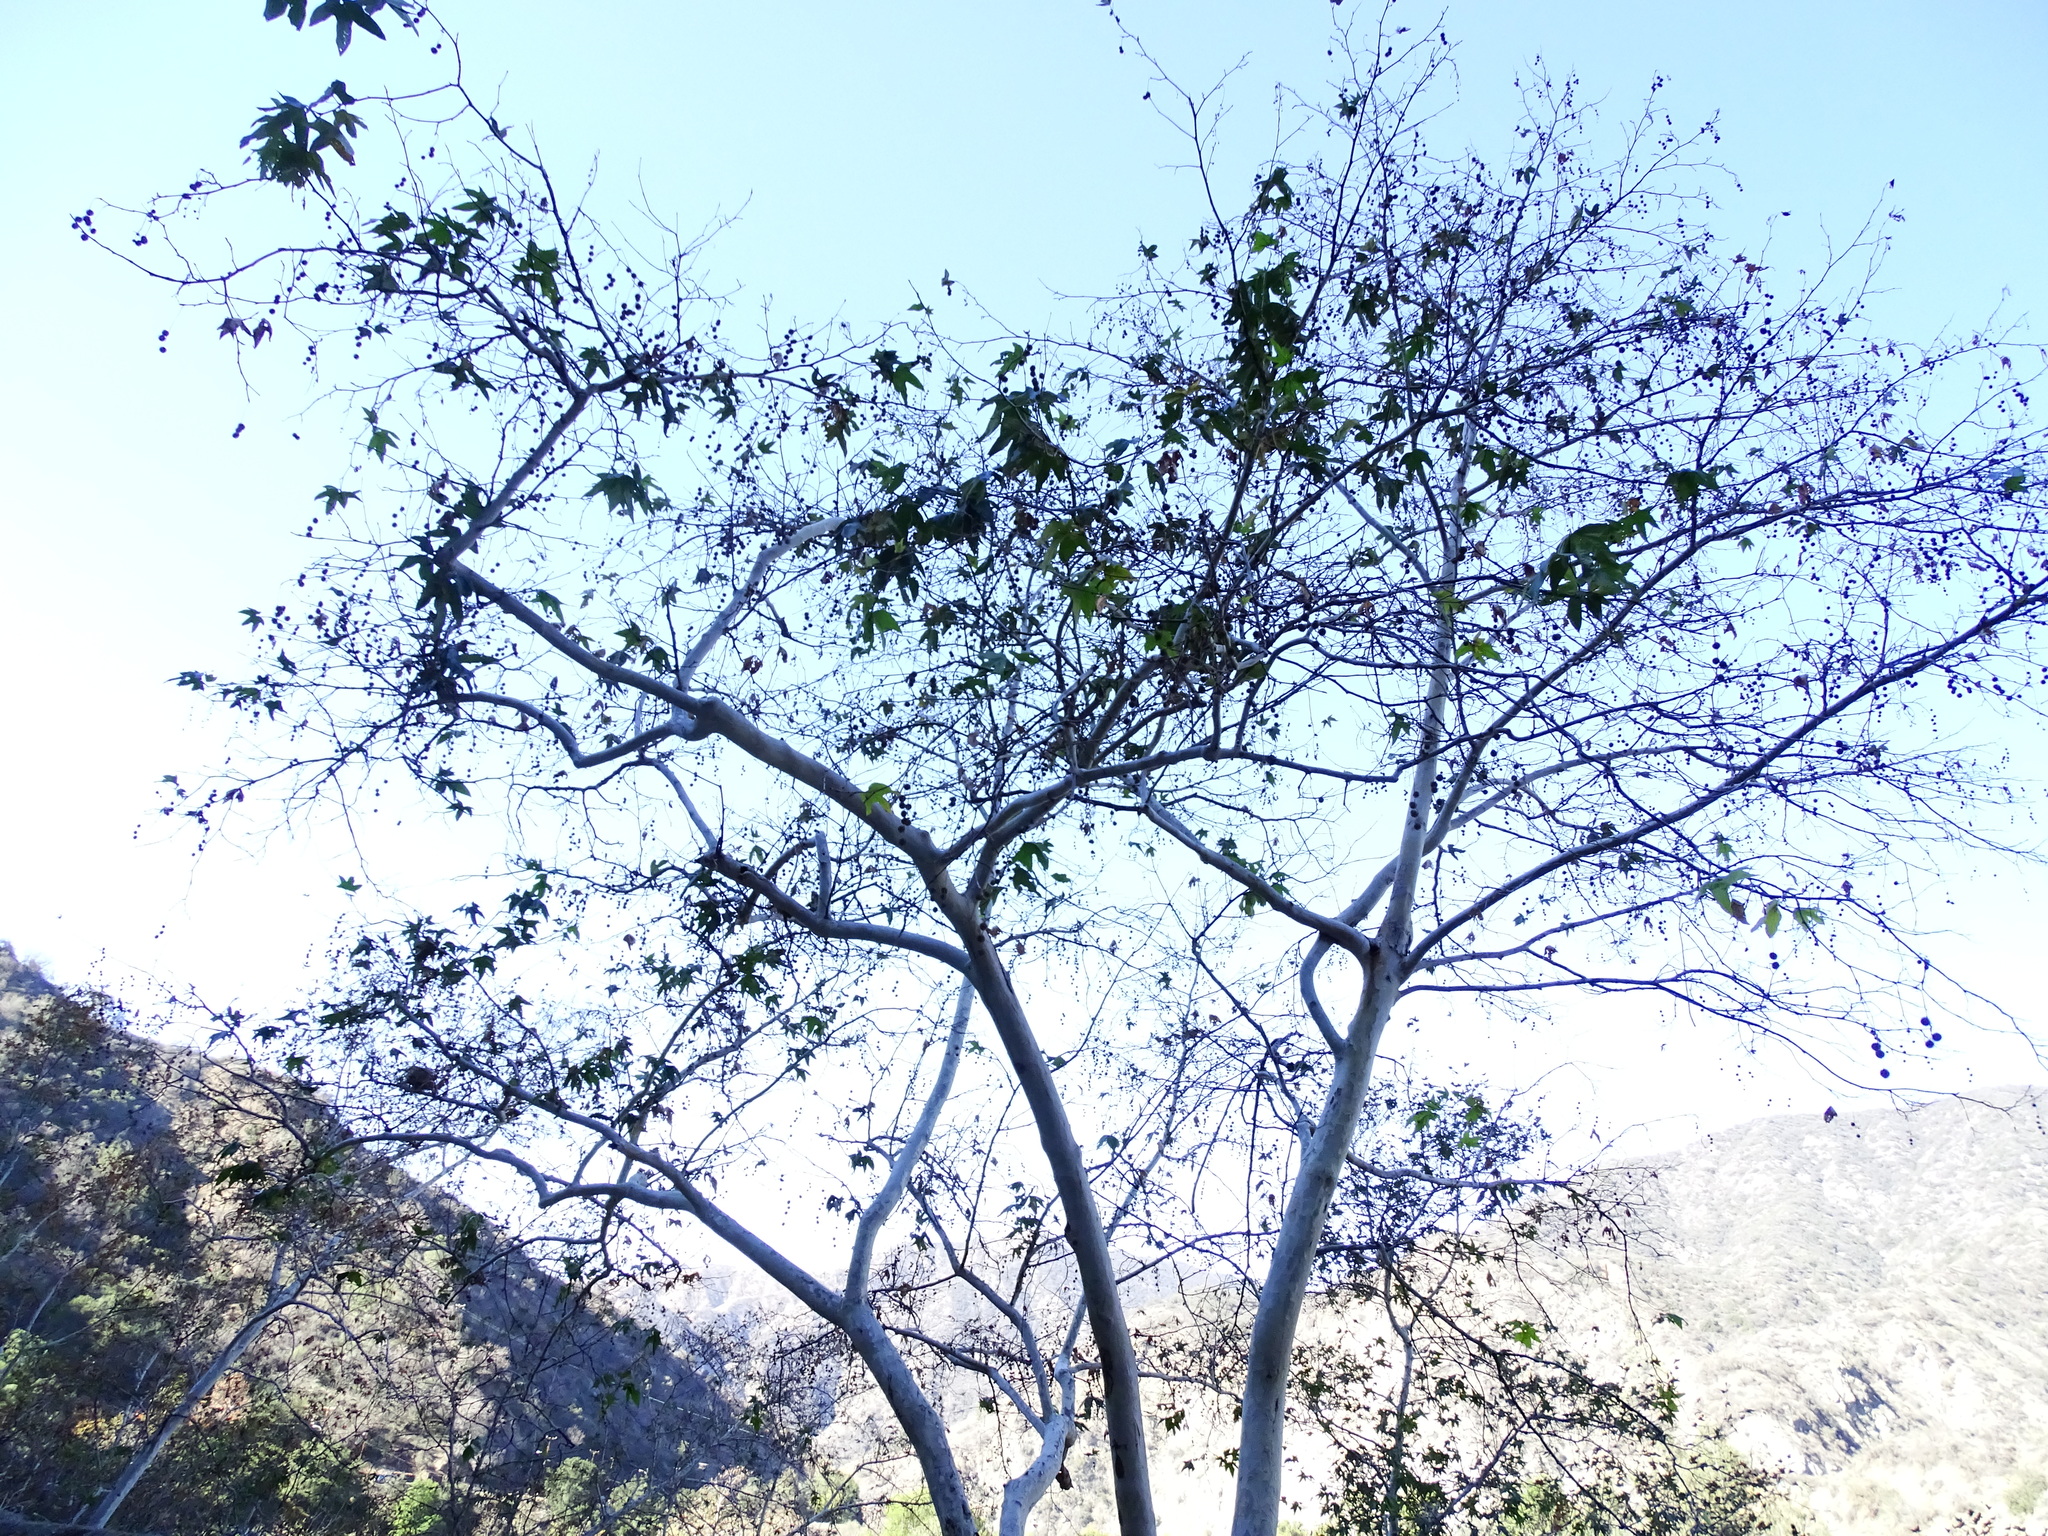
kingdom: Plantae
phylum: Tracheophyta
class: Magnoliopsida
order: Proteales
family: Platanaceae
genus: Platanus
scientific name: Platanus racemosa
